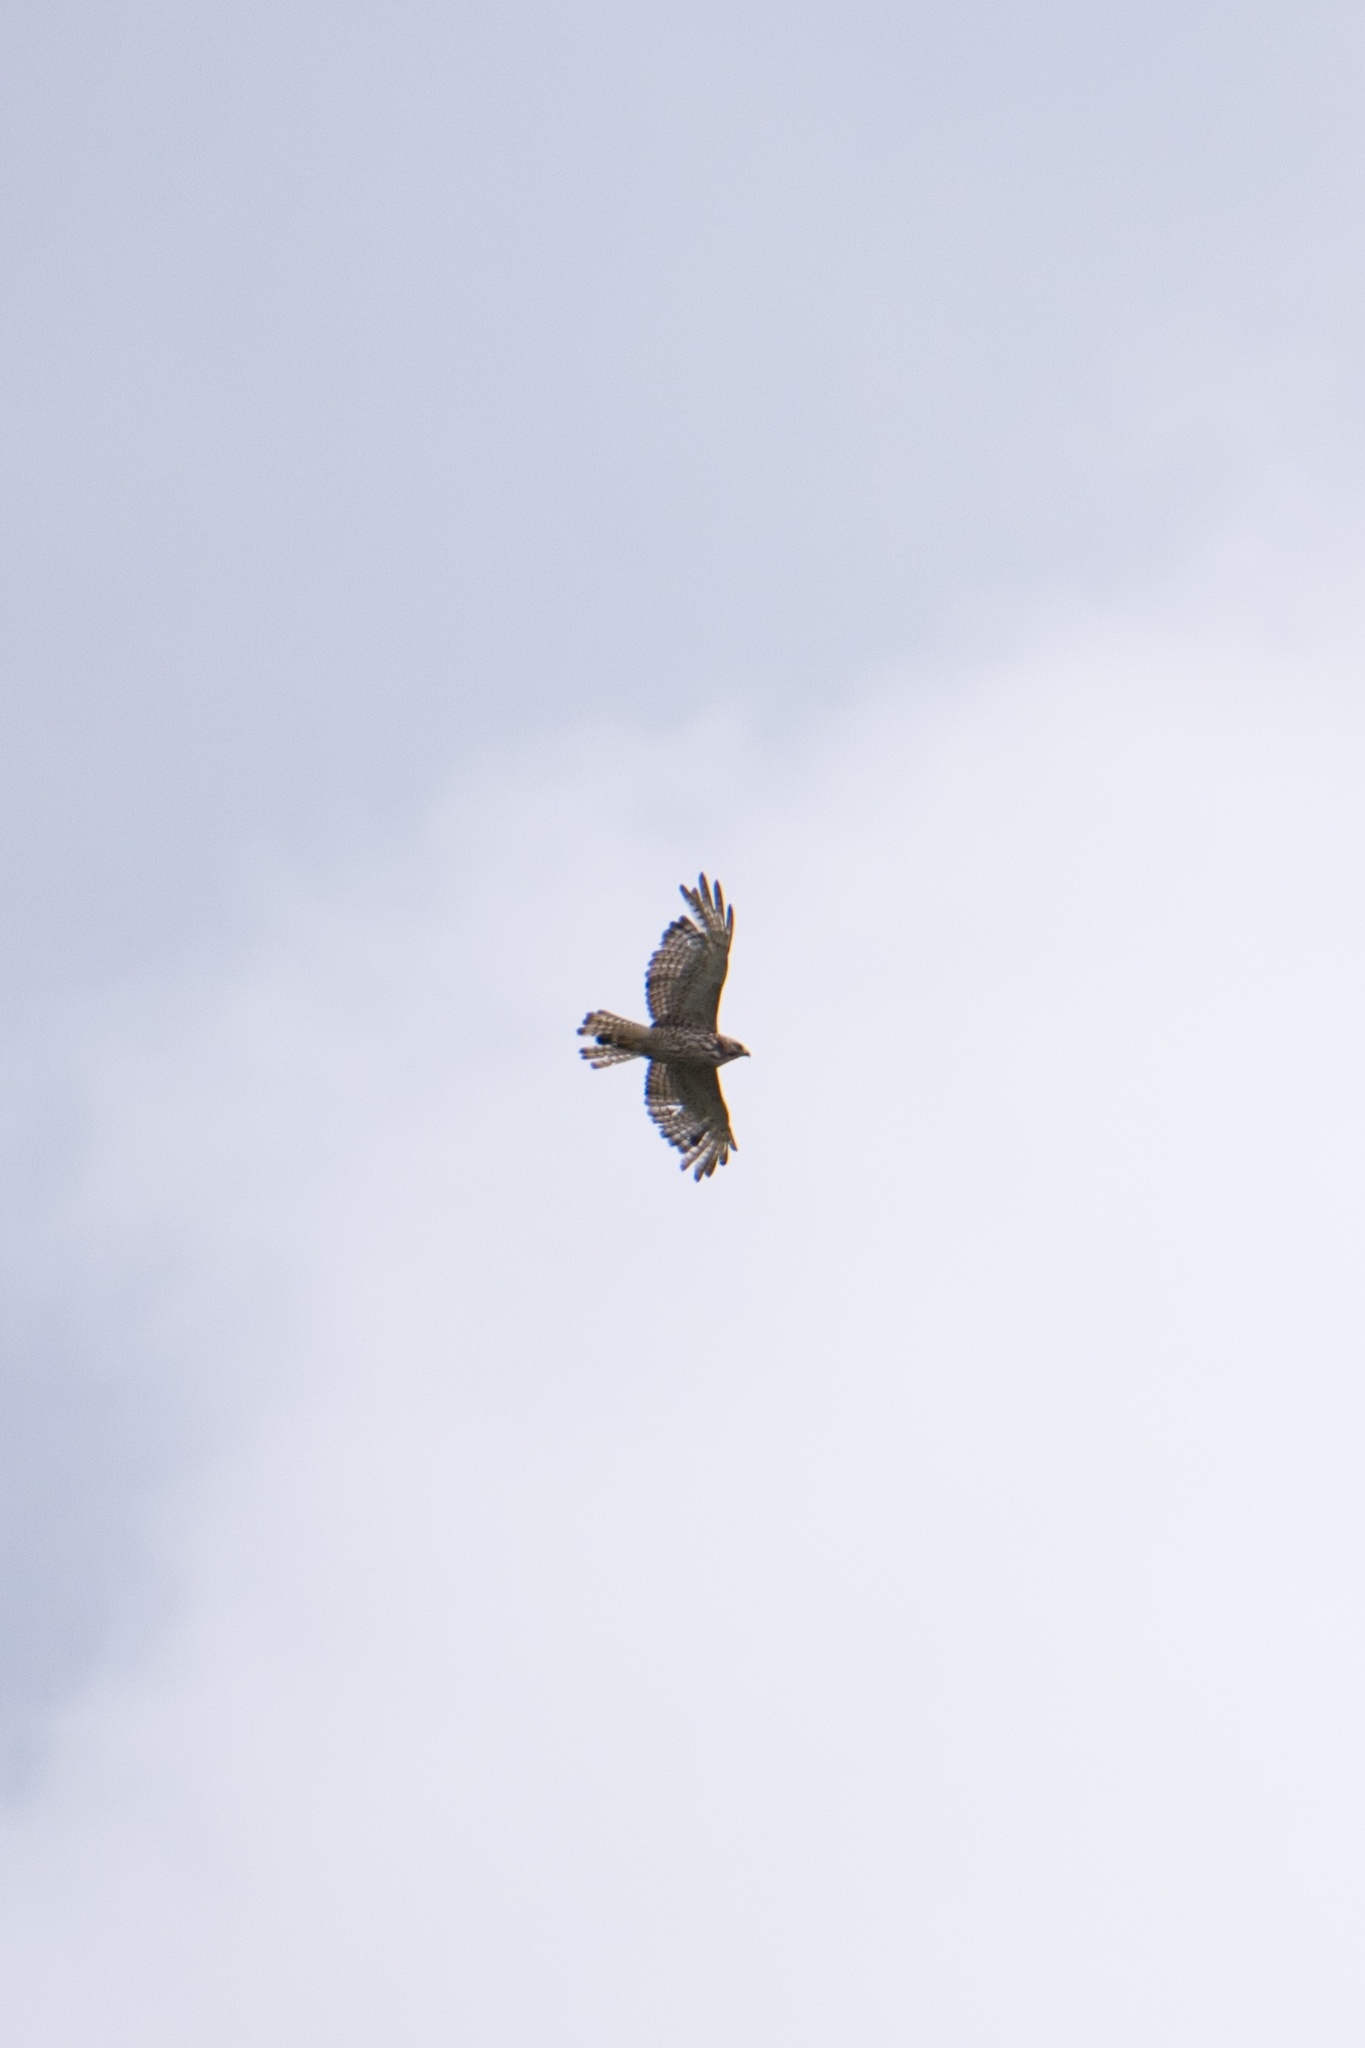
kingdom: Animalia
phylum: Chordata
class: Aves
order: Accipitriformes
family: Accipitridae
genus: Buteo
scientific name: Buteo platypterus
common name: Broad-winged hawk
